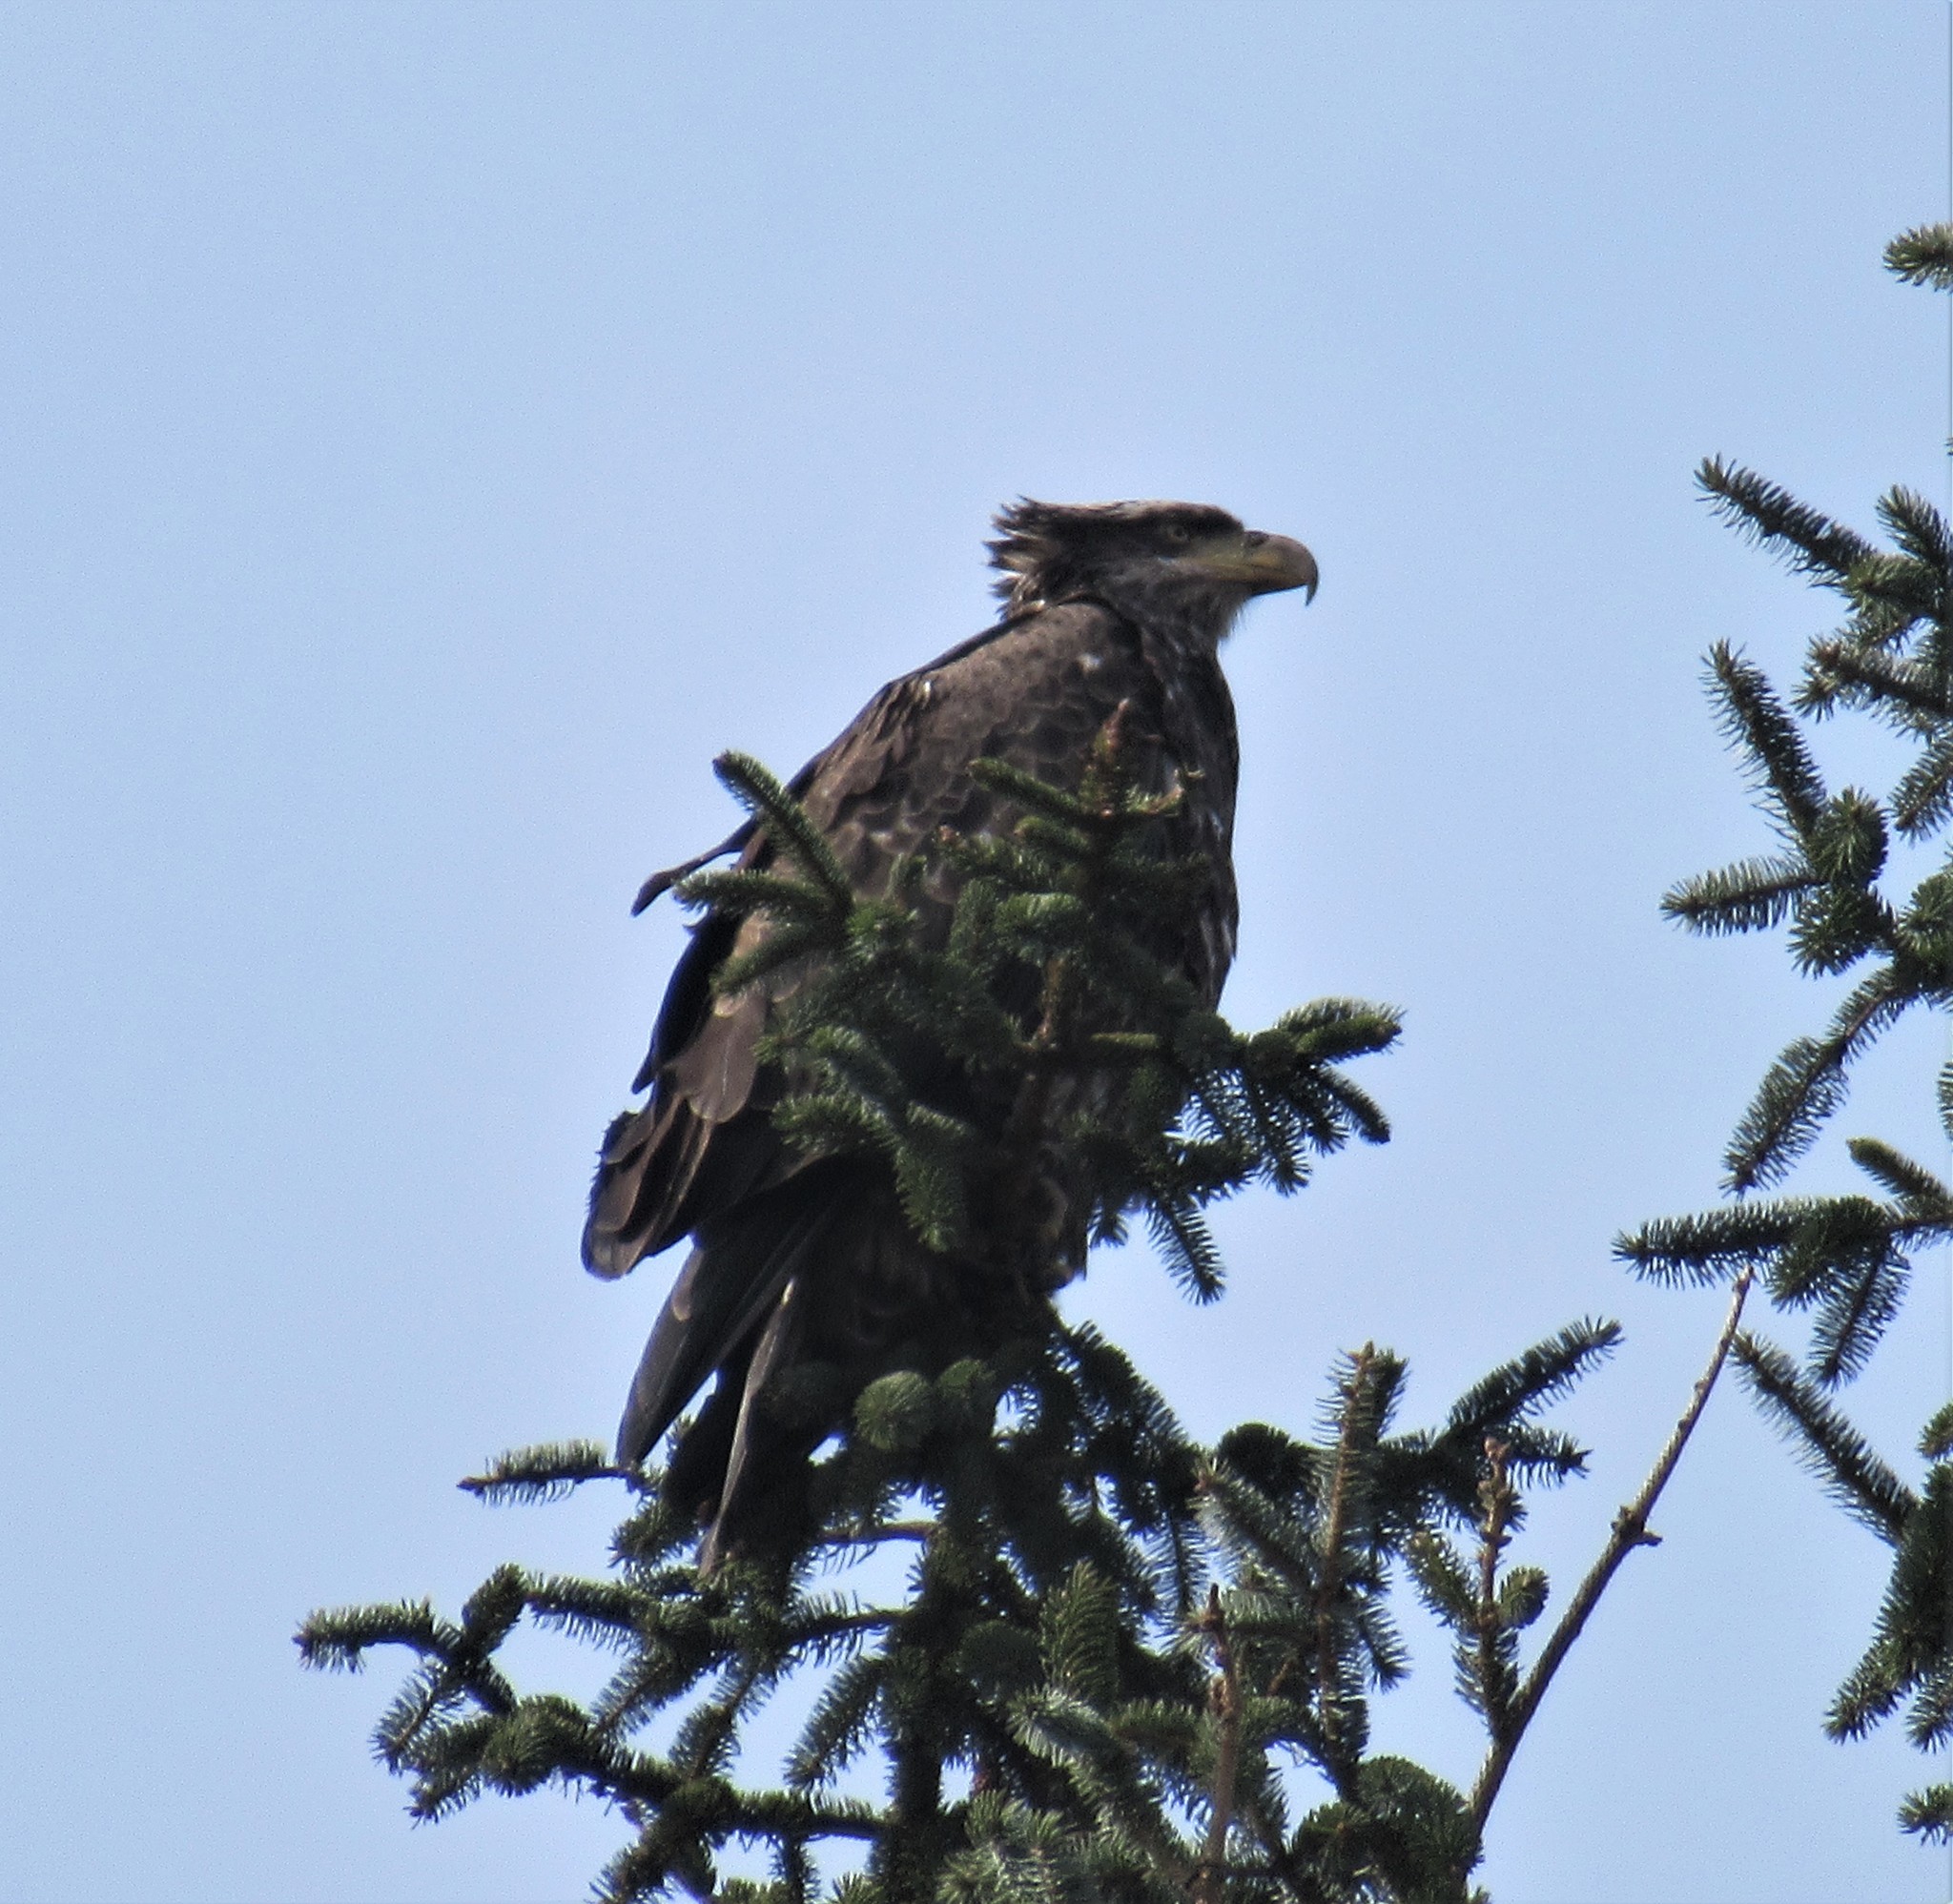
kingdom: Animalia
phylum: Chordata
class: Aves
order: Accipitriformes
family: Accipitridae
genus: Haliaeetus
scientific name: Haliaeetus leucocephalus
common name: Bald eagle
